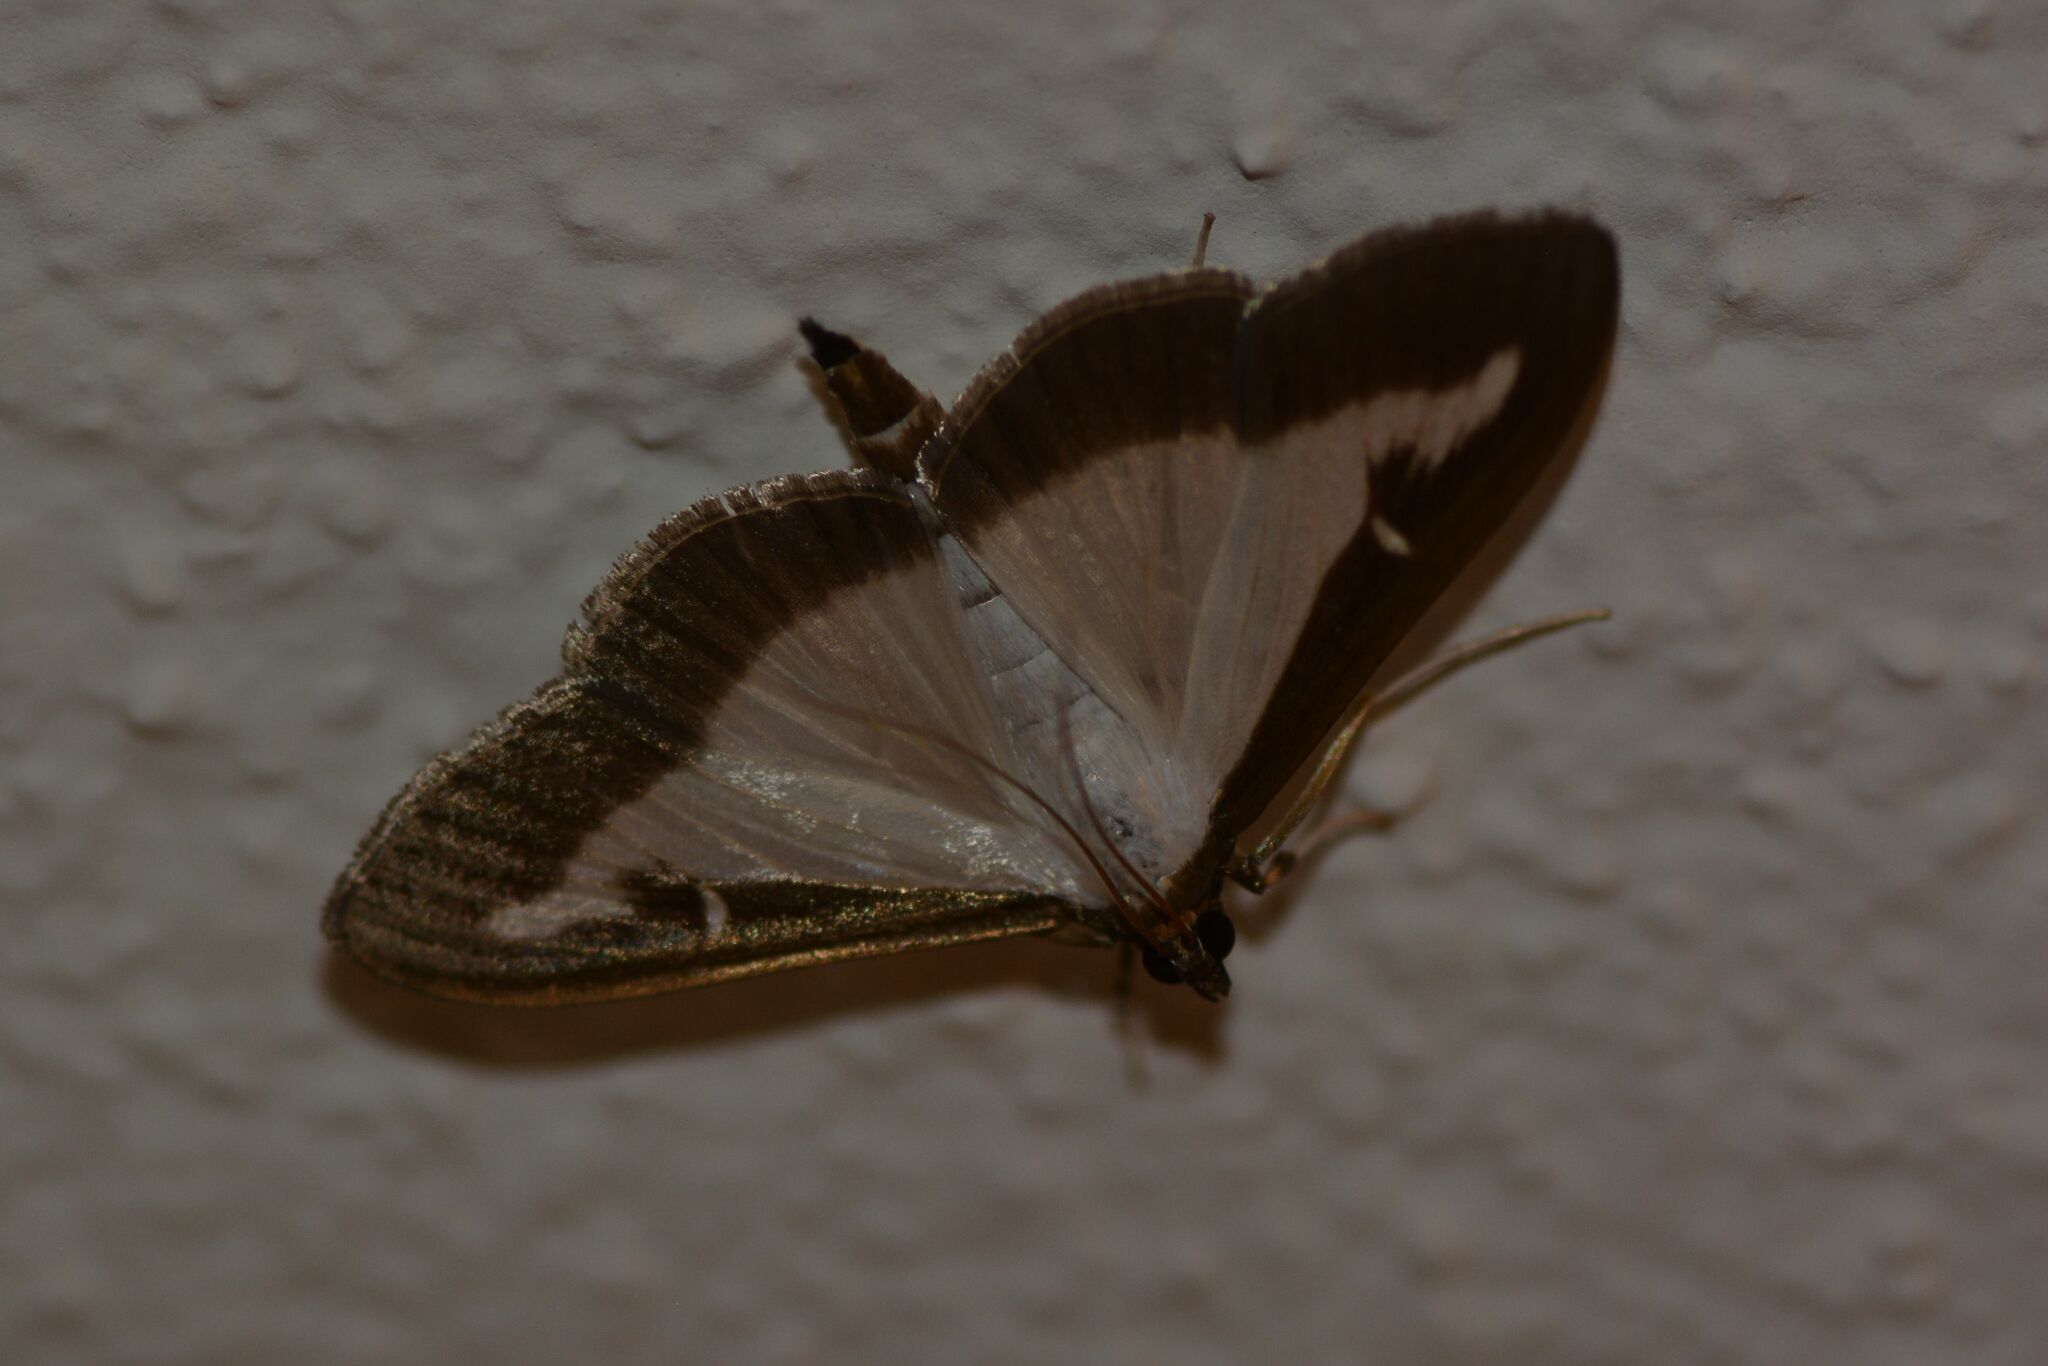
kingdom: Animalia
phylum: Arthropoda
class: Insecta
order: Lepidoptera
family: Crambidae
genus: Cydalima
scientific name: Cydalima perspectalis
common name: Box tree moth
